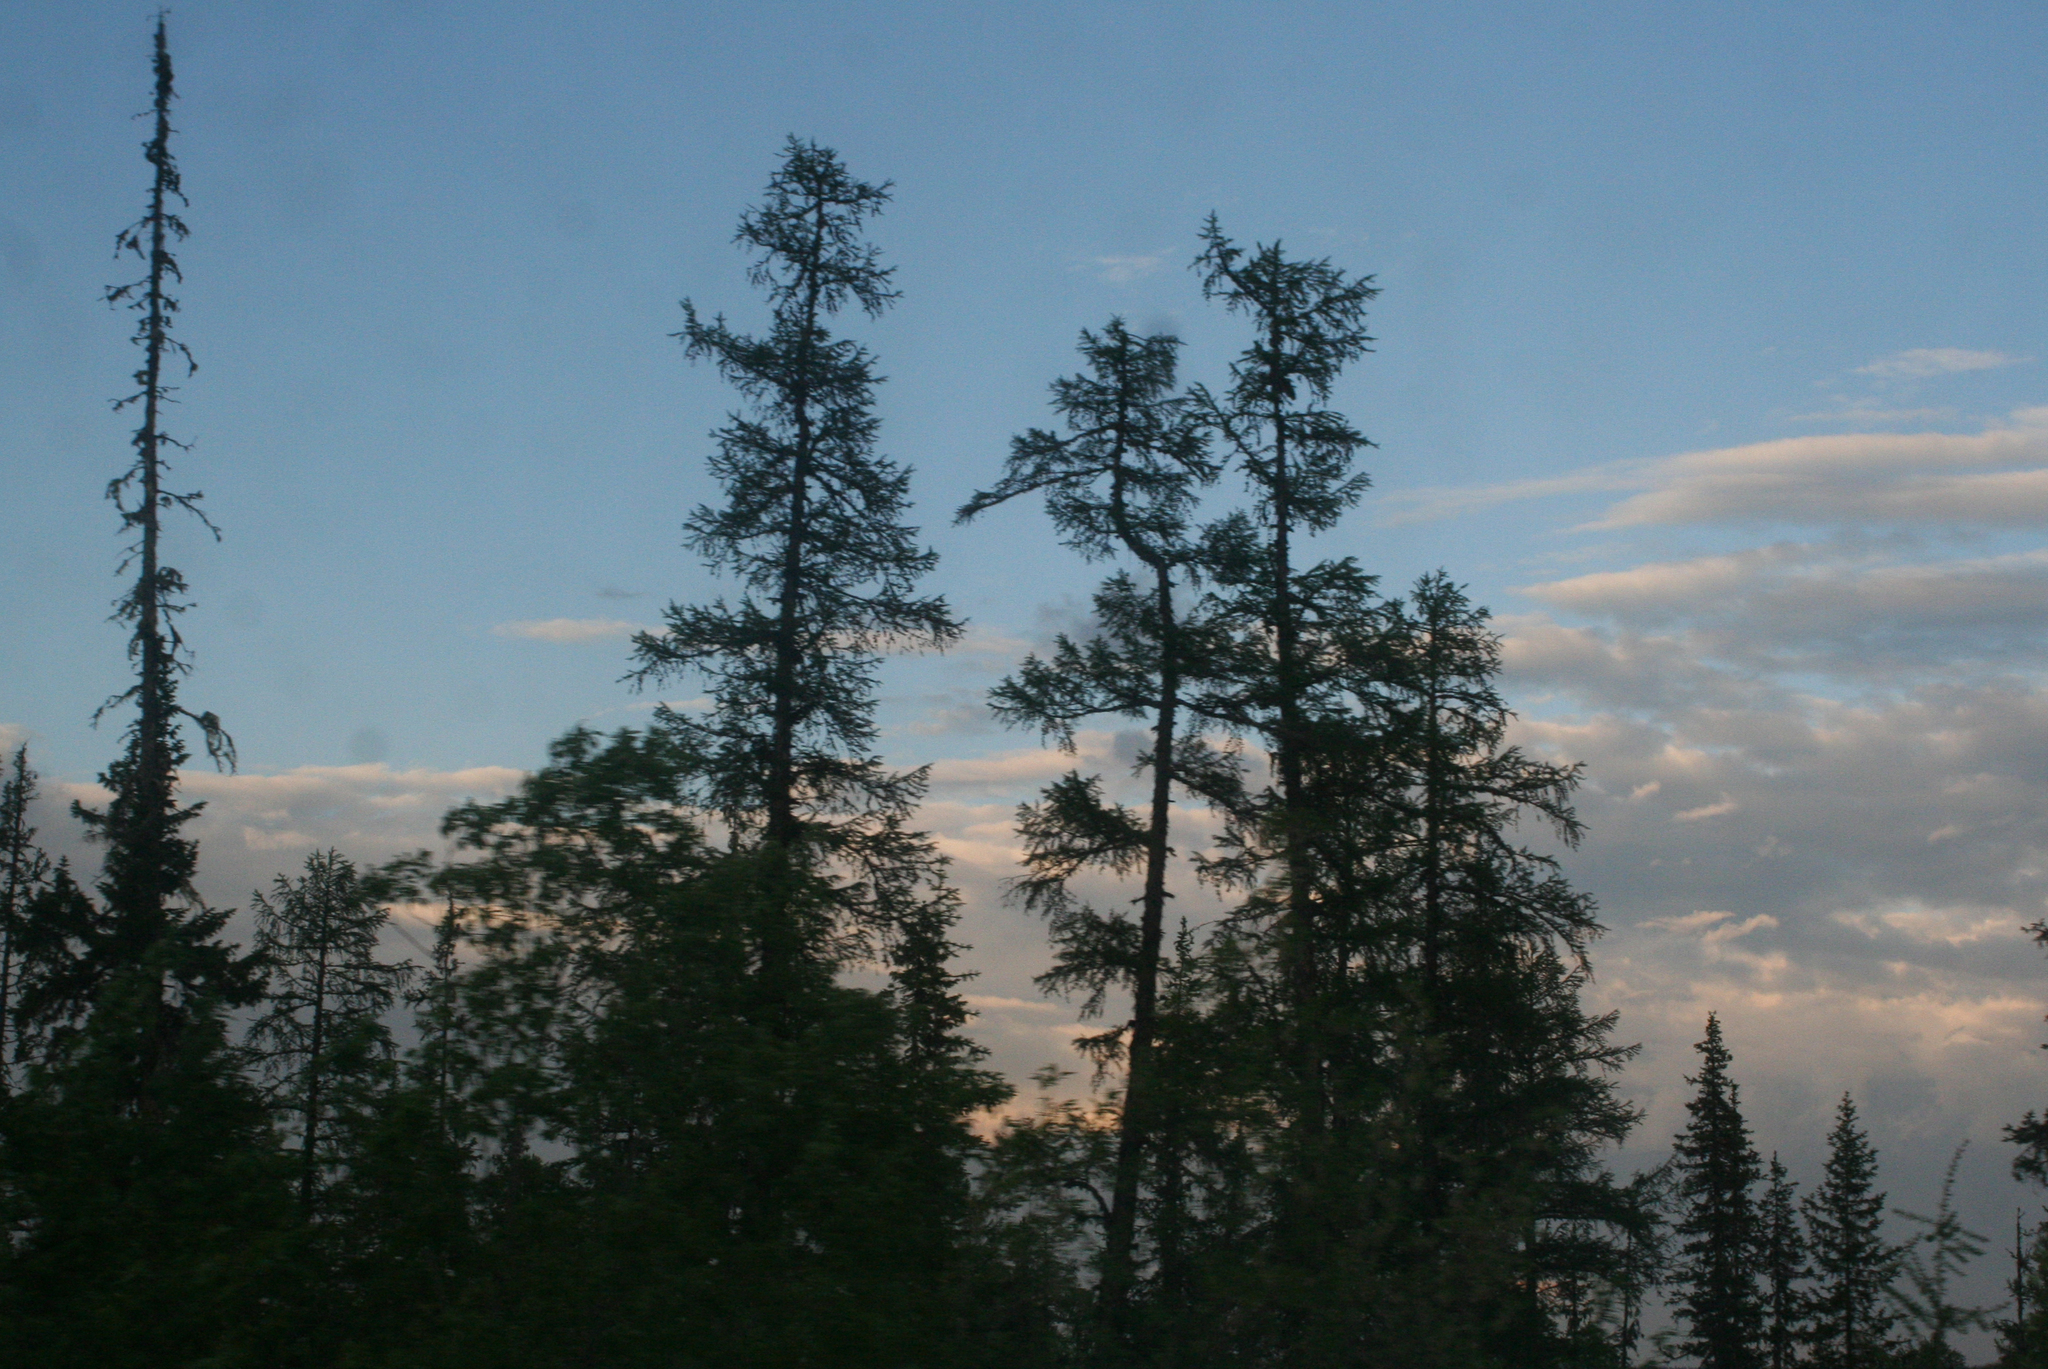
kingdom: Plantae
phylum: Tracheophyta
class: Pinopsida
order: Pinales
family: Pinaceae
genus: Larix
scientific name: Larix gmelinii
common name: Dahurian larch
